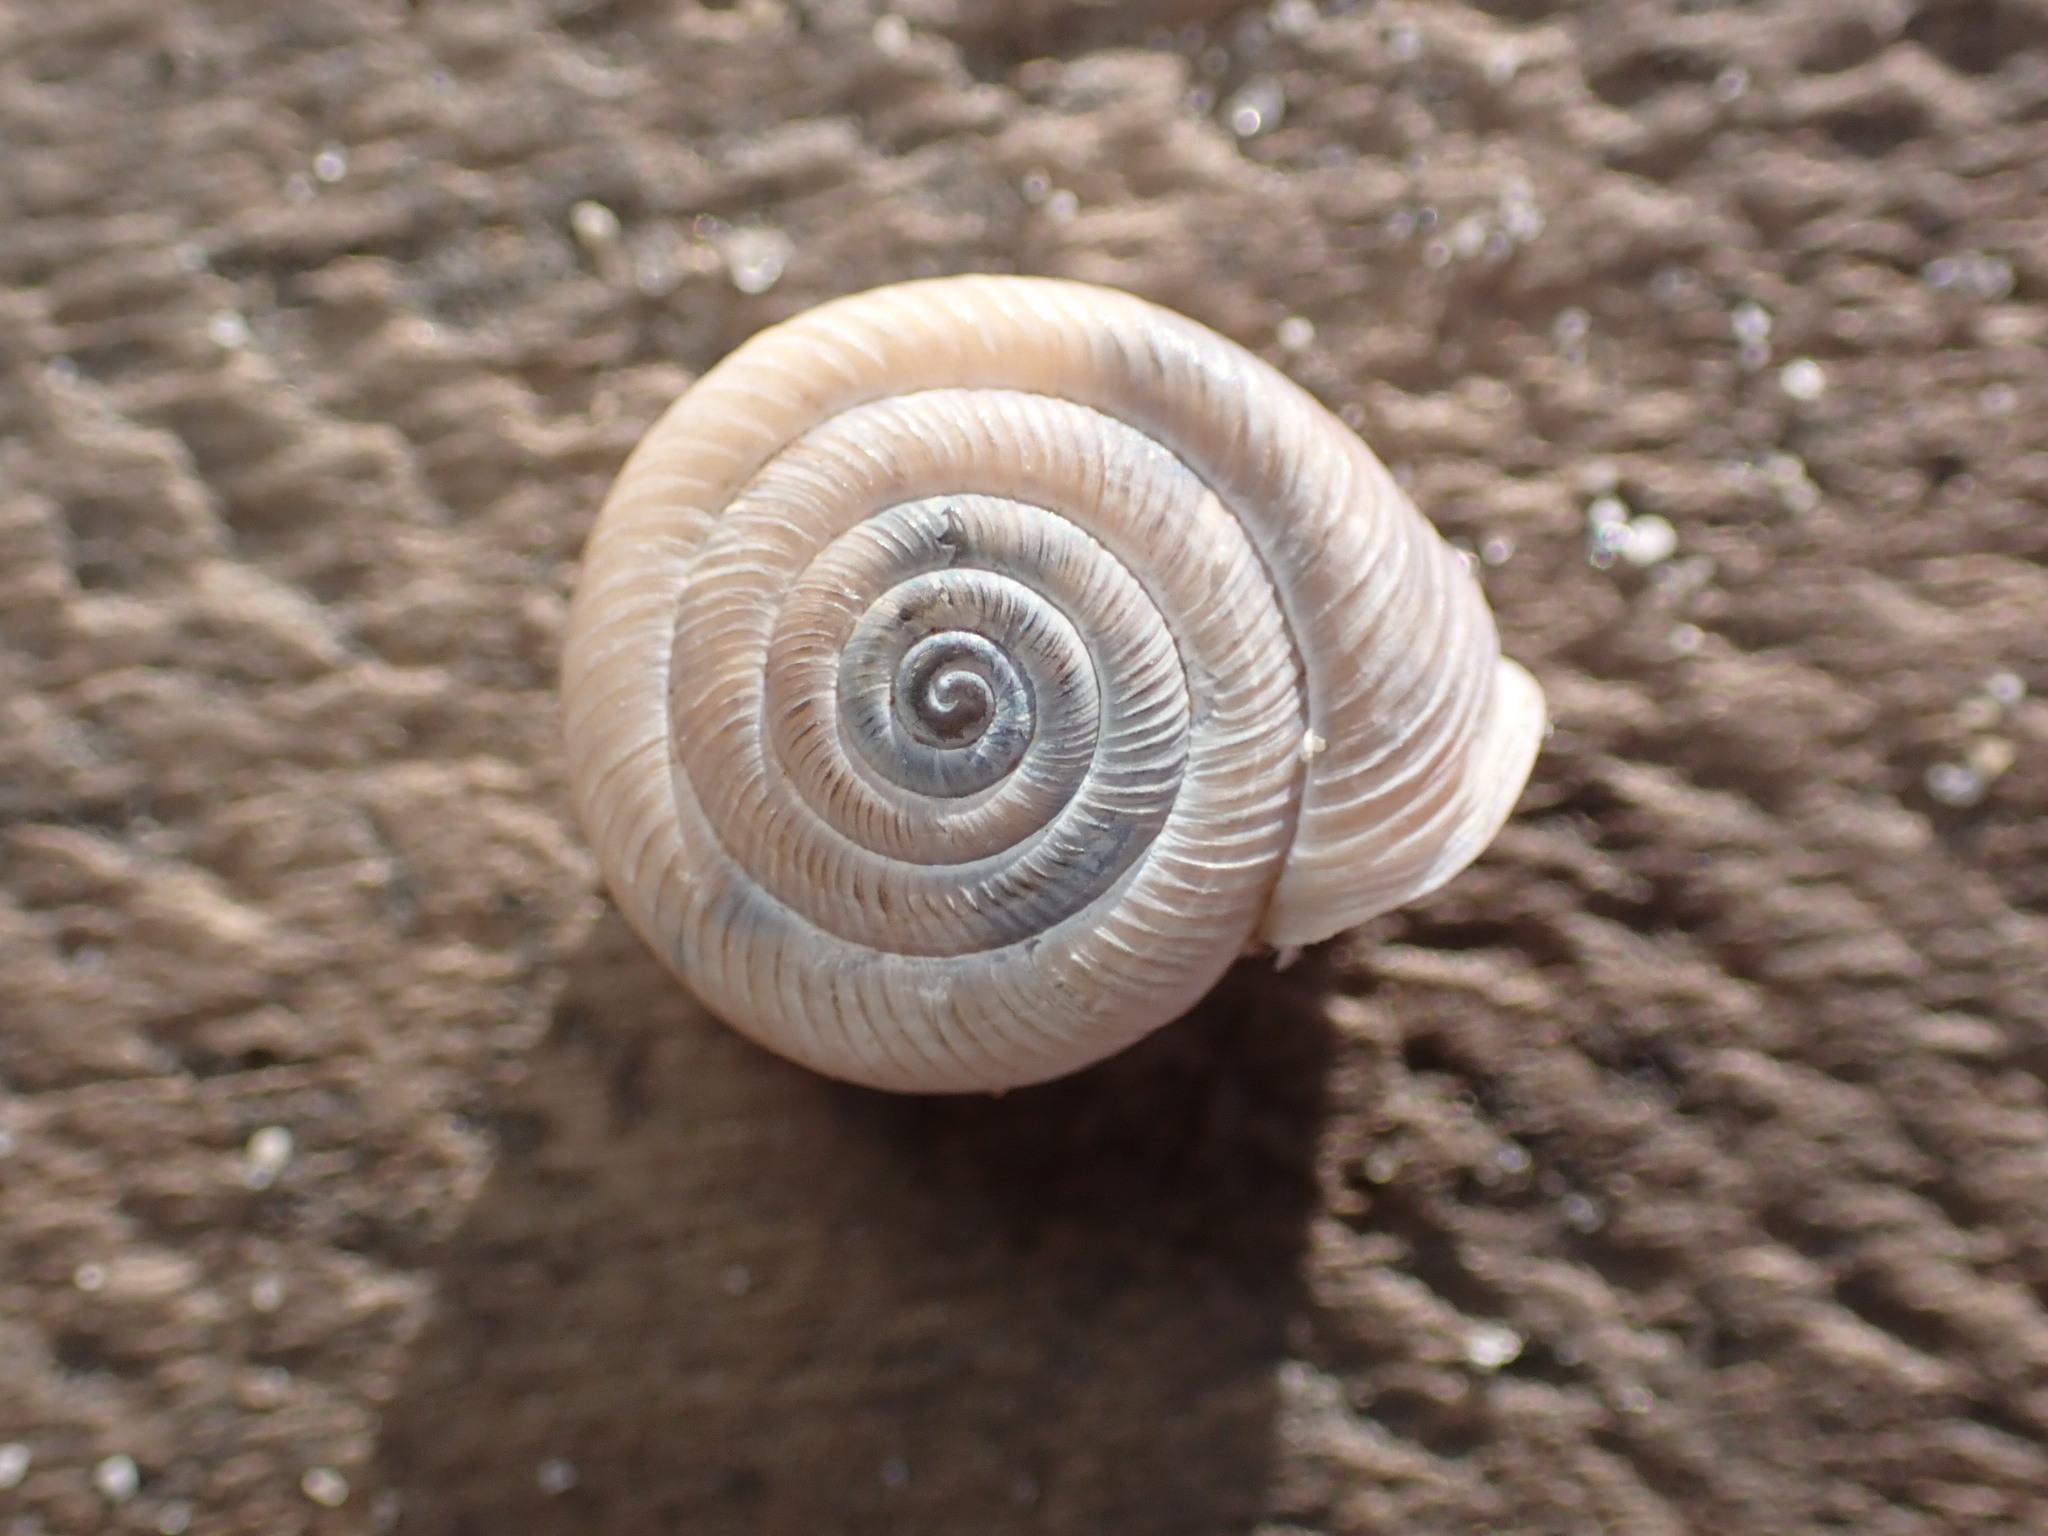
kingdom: Animalia
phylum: Mollusca
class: Gastropoda
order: Stylommatophora
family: Polygyridae
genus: Polygyra
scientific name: Polygyra cereolus
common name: Southern flatcone snail
